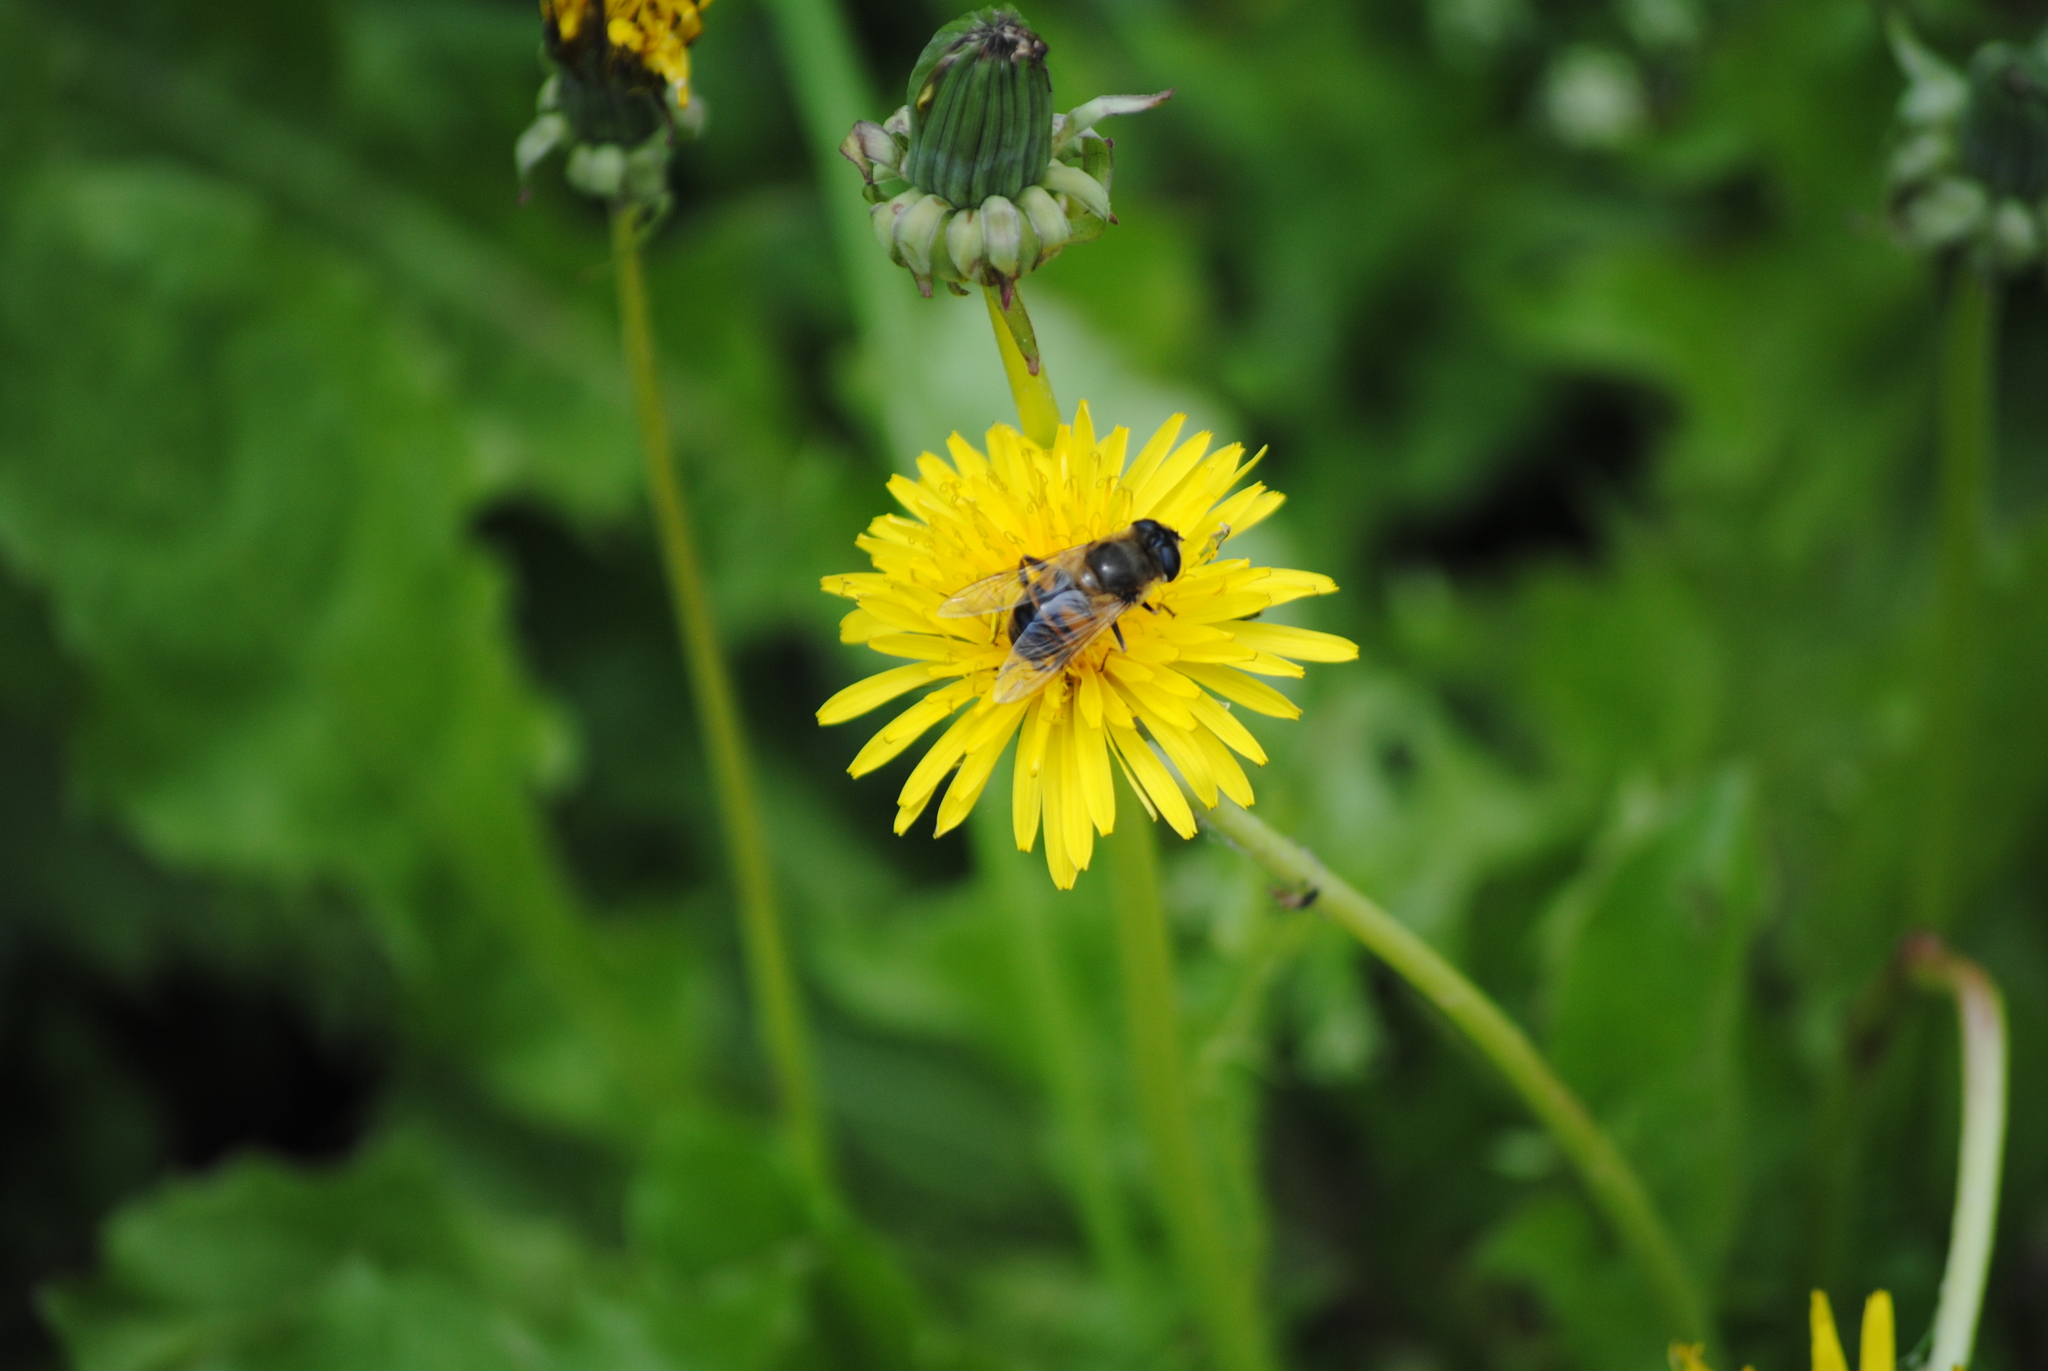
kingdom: Animalia
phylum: Arthropoda
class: Insecta
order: Diptera
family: Syrphidae
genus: Eristalis
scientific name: Eristalis tenax
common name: Drone fly
